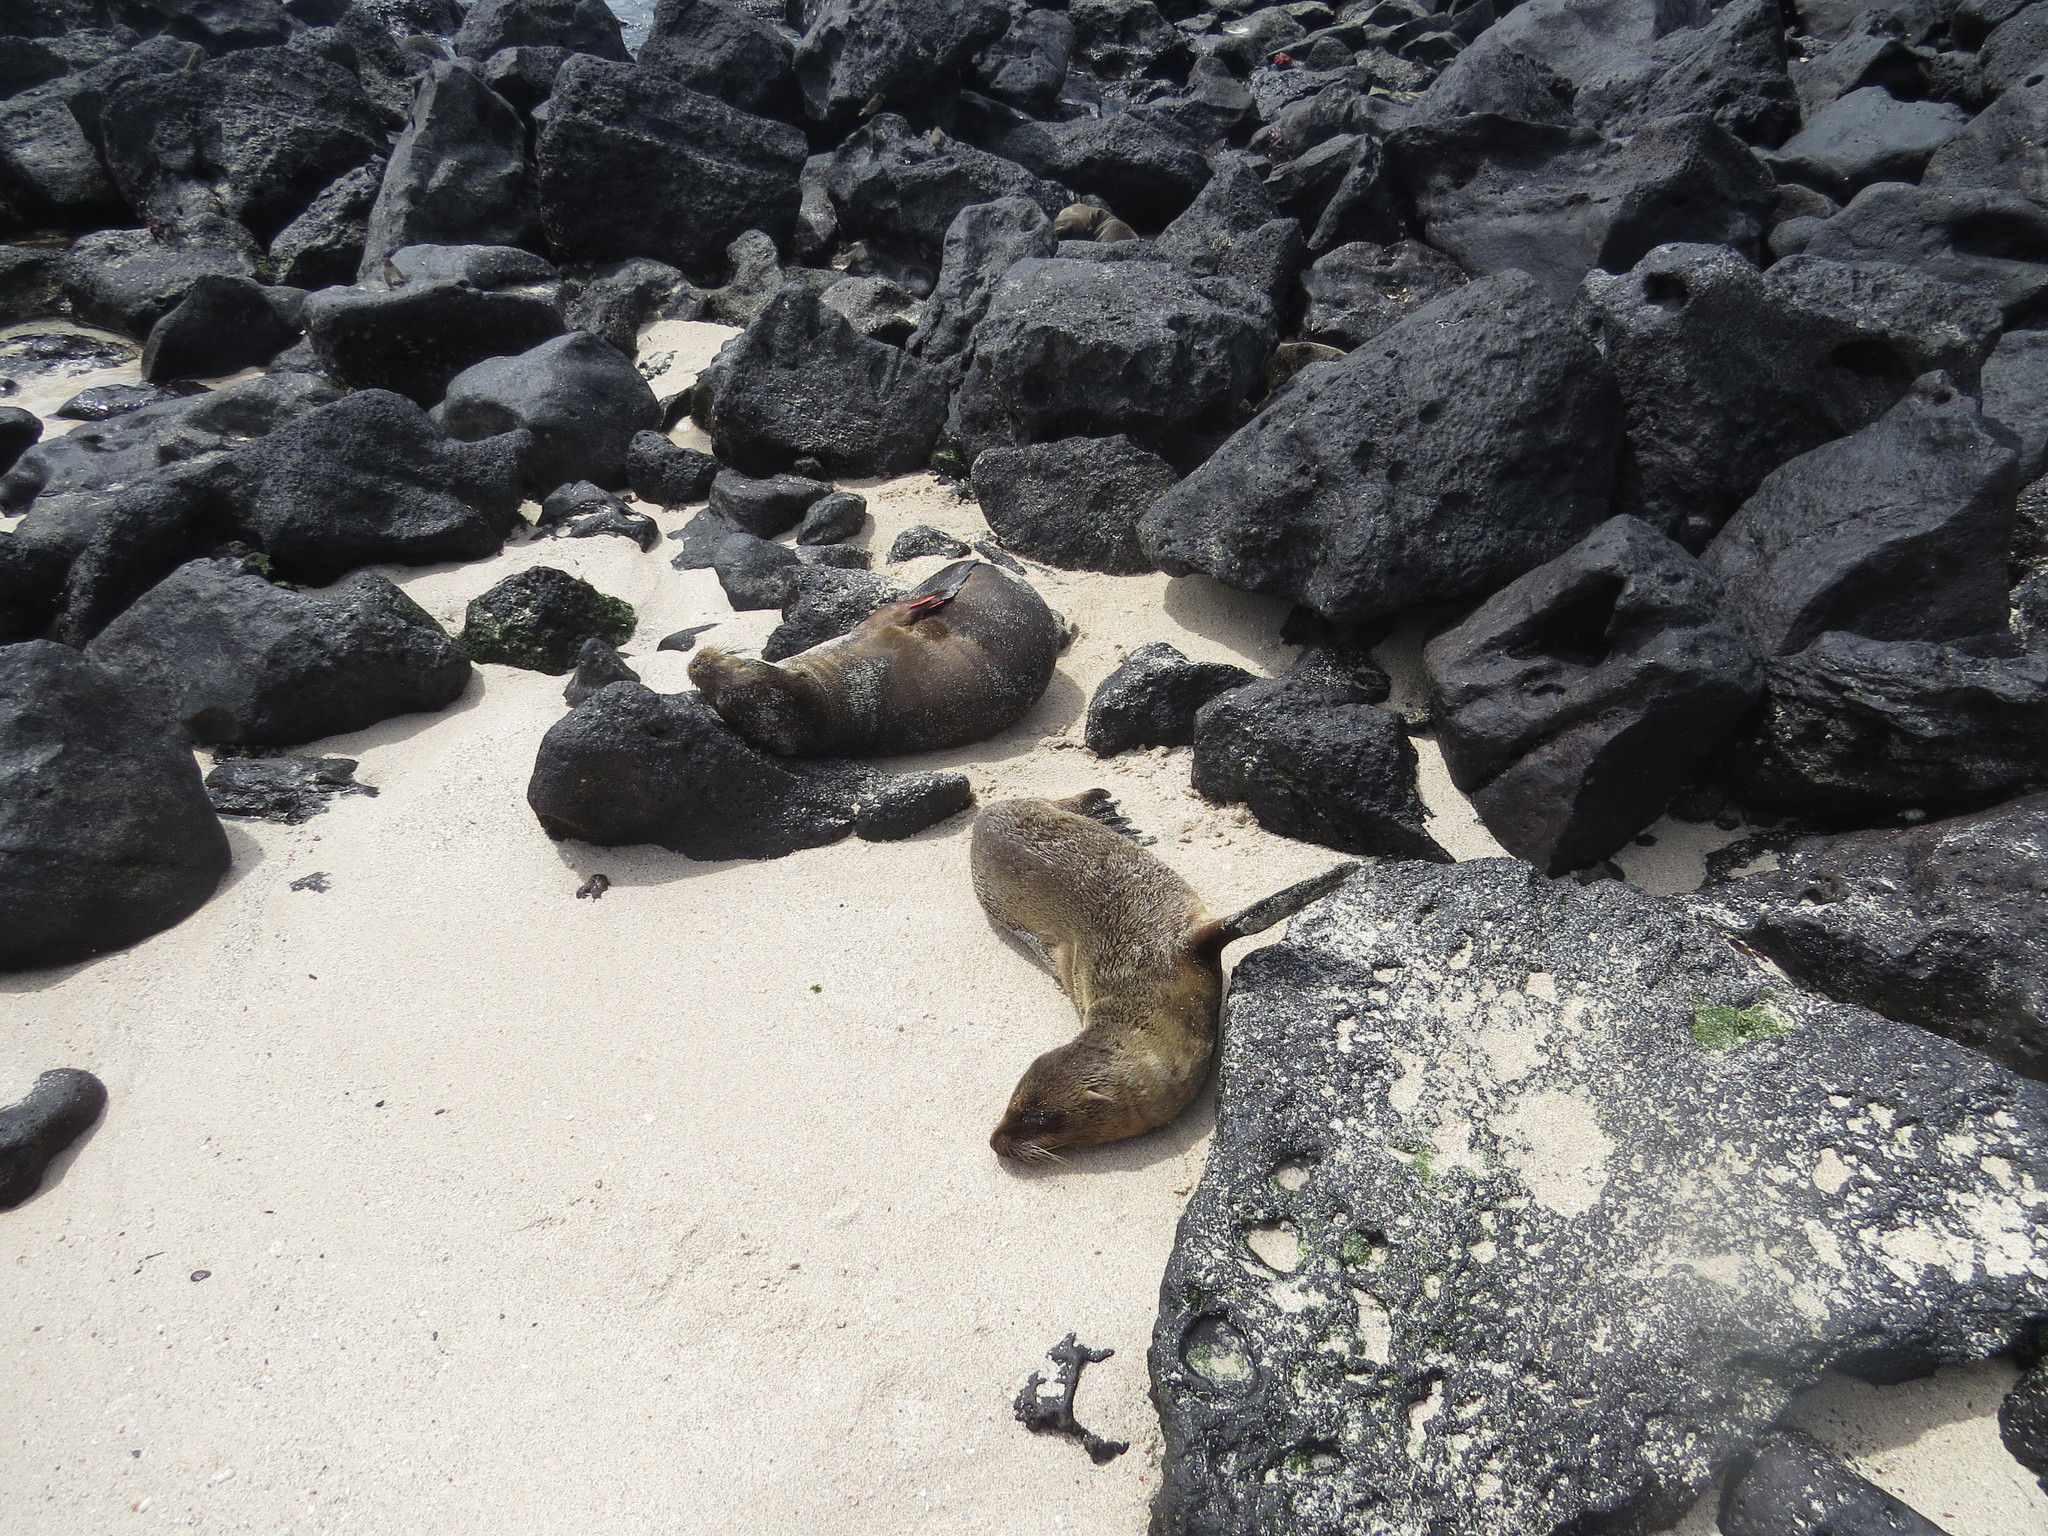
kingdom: Animalia
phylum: Chordata
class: Mammalia
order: Carnivora
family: Otariidae
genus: Zalophus
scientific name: Zalophus wollebaeki
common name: Galapagos sea lion
